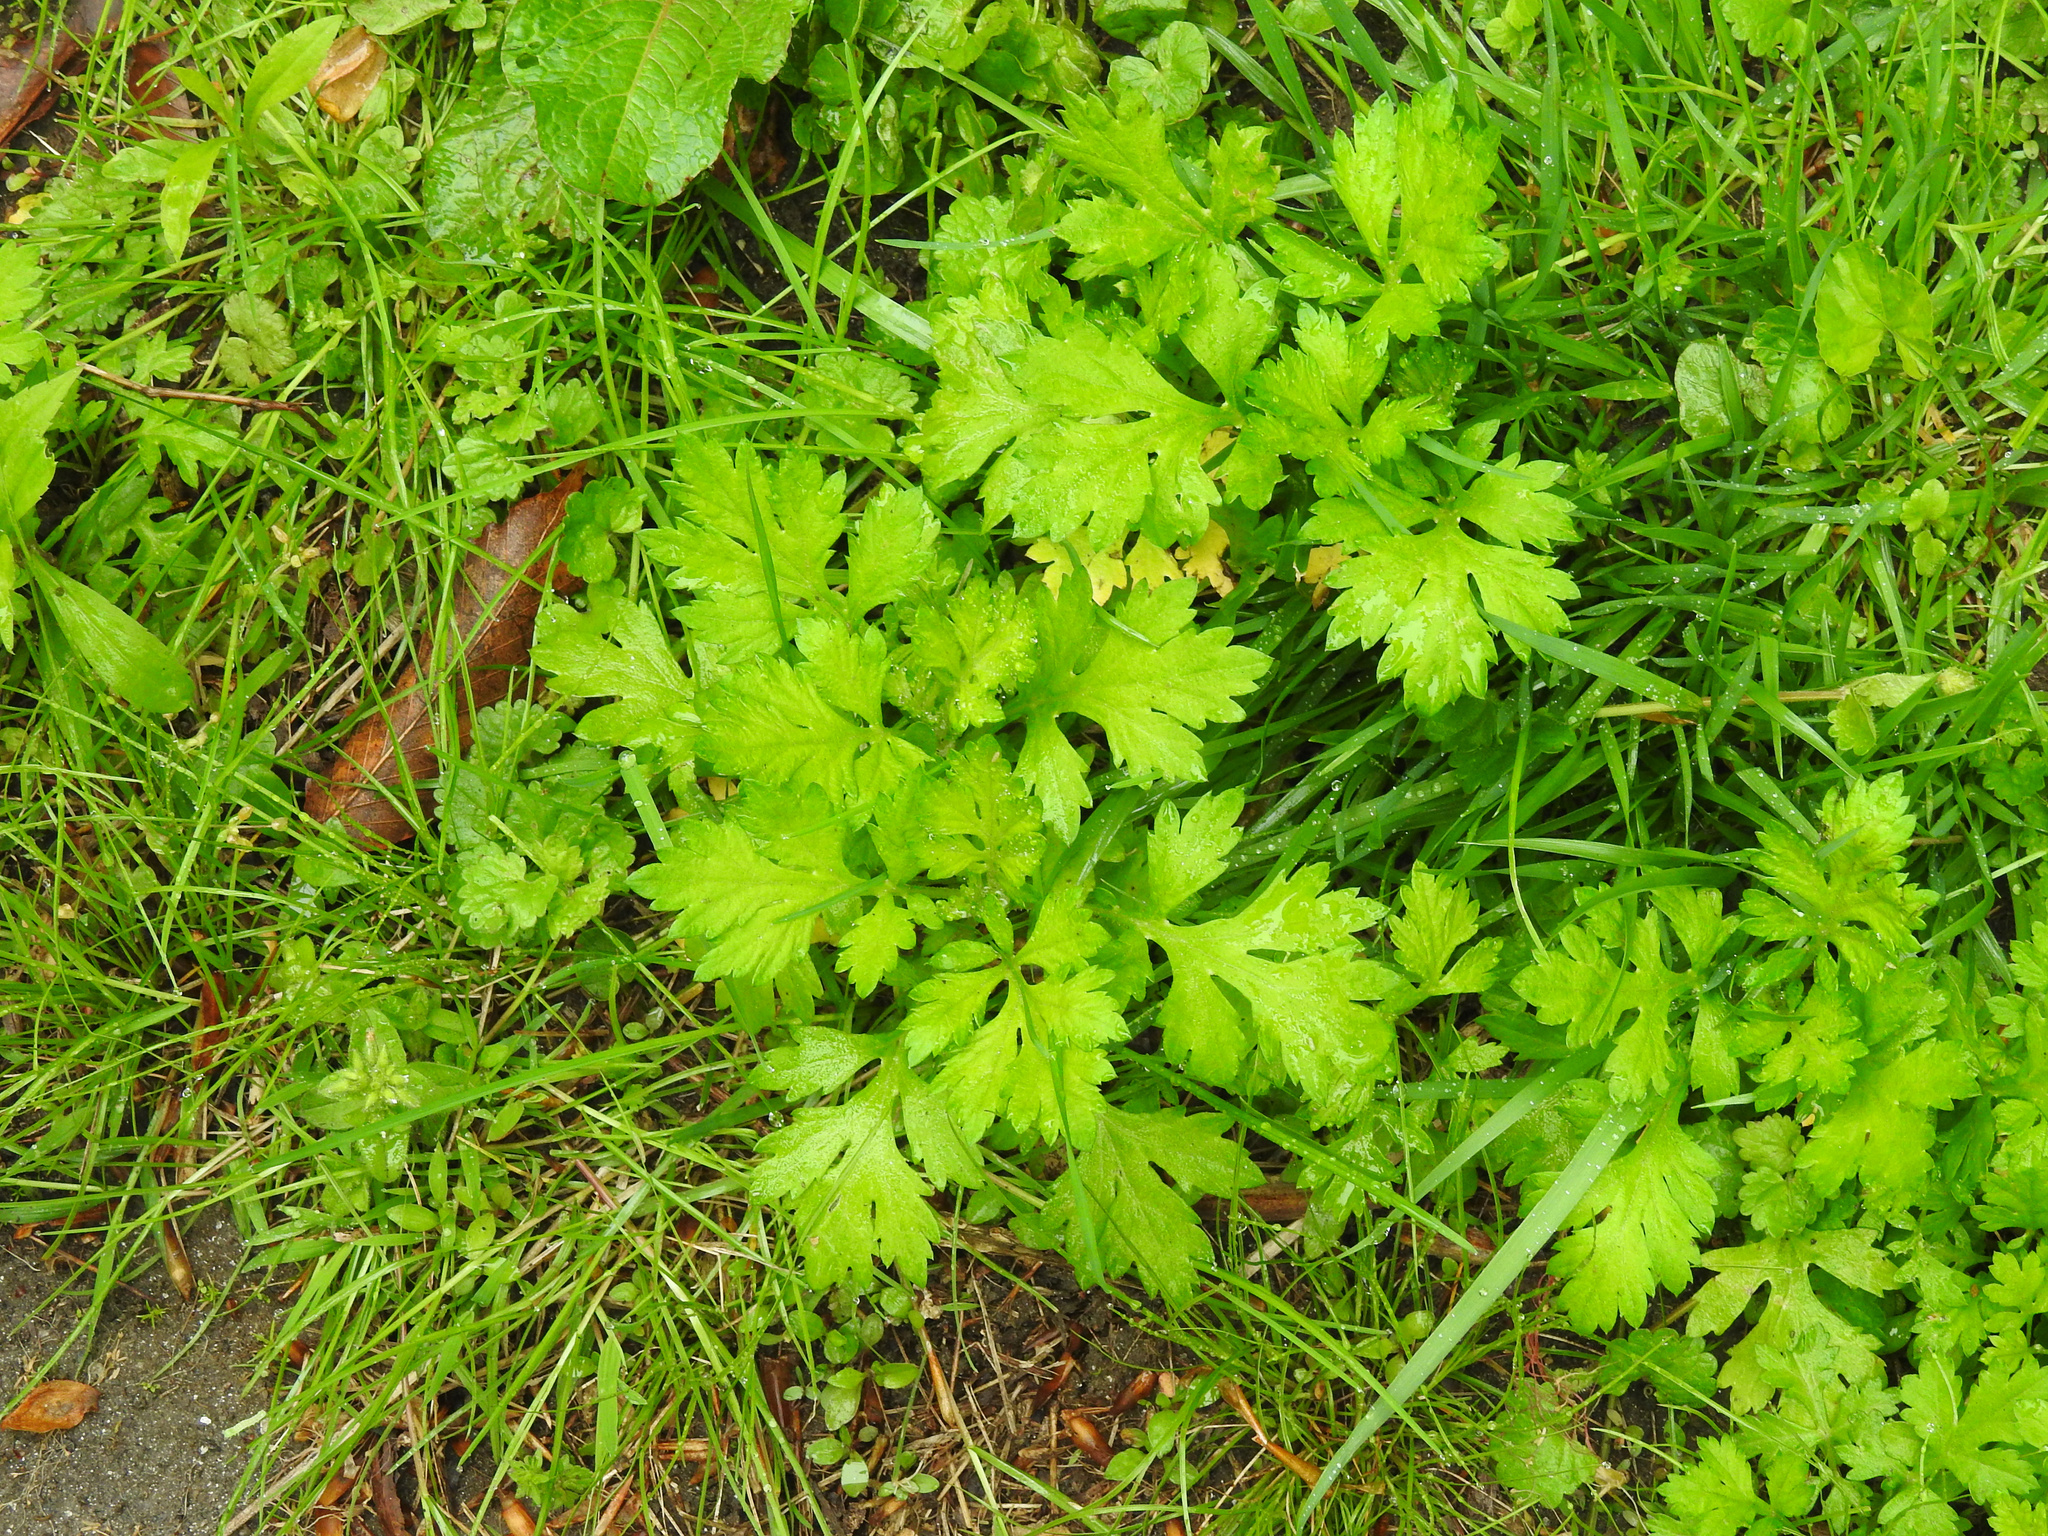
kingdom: Plantae
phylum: Tracheophyta
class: Magnoliopsida
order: Asterales
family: Asteraceae
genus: Artemisia
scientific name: Artemisia vulgaris
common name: Mugwort
